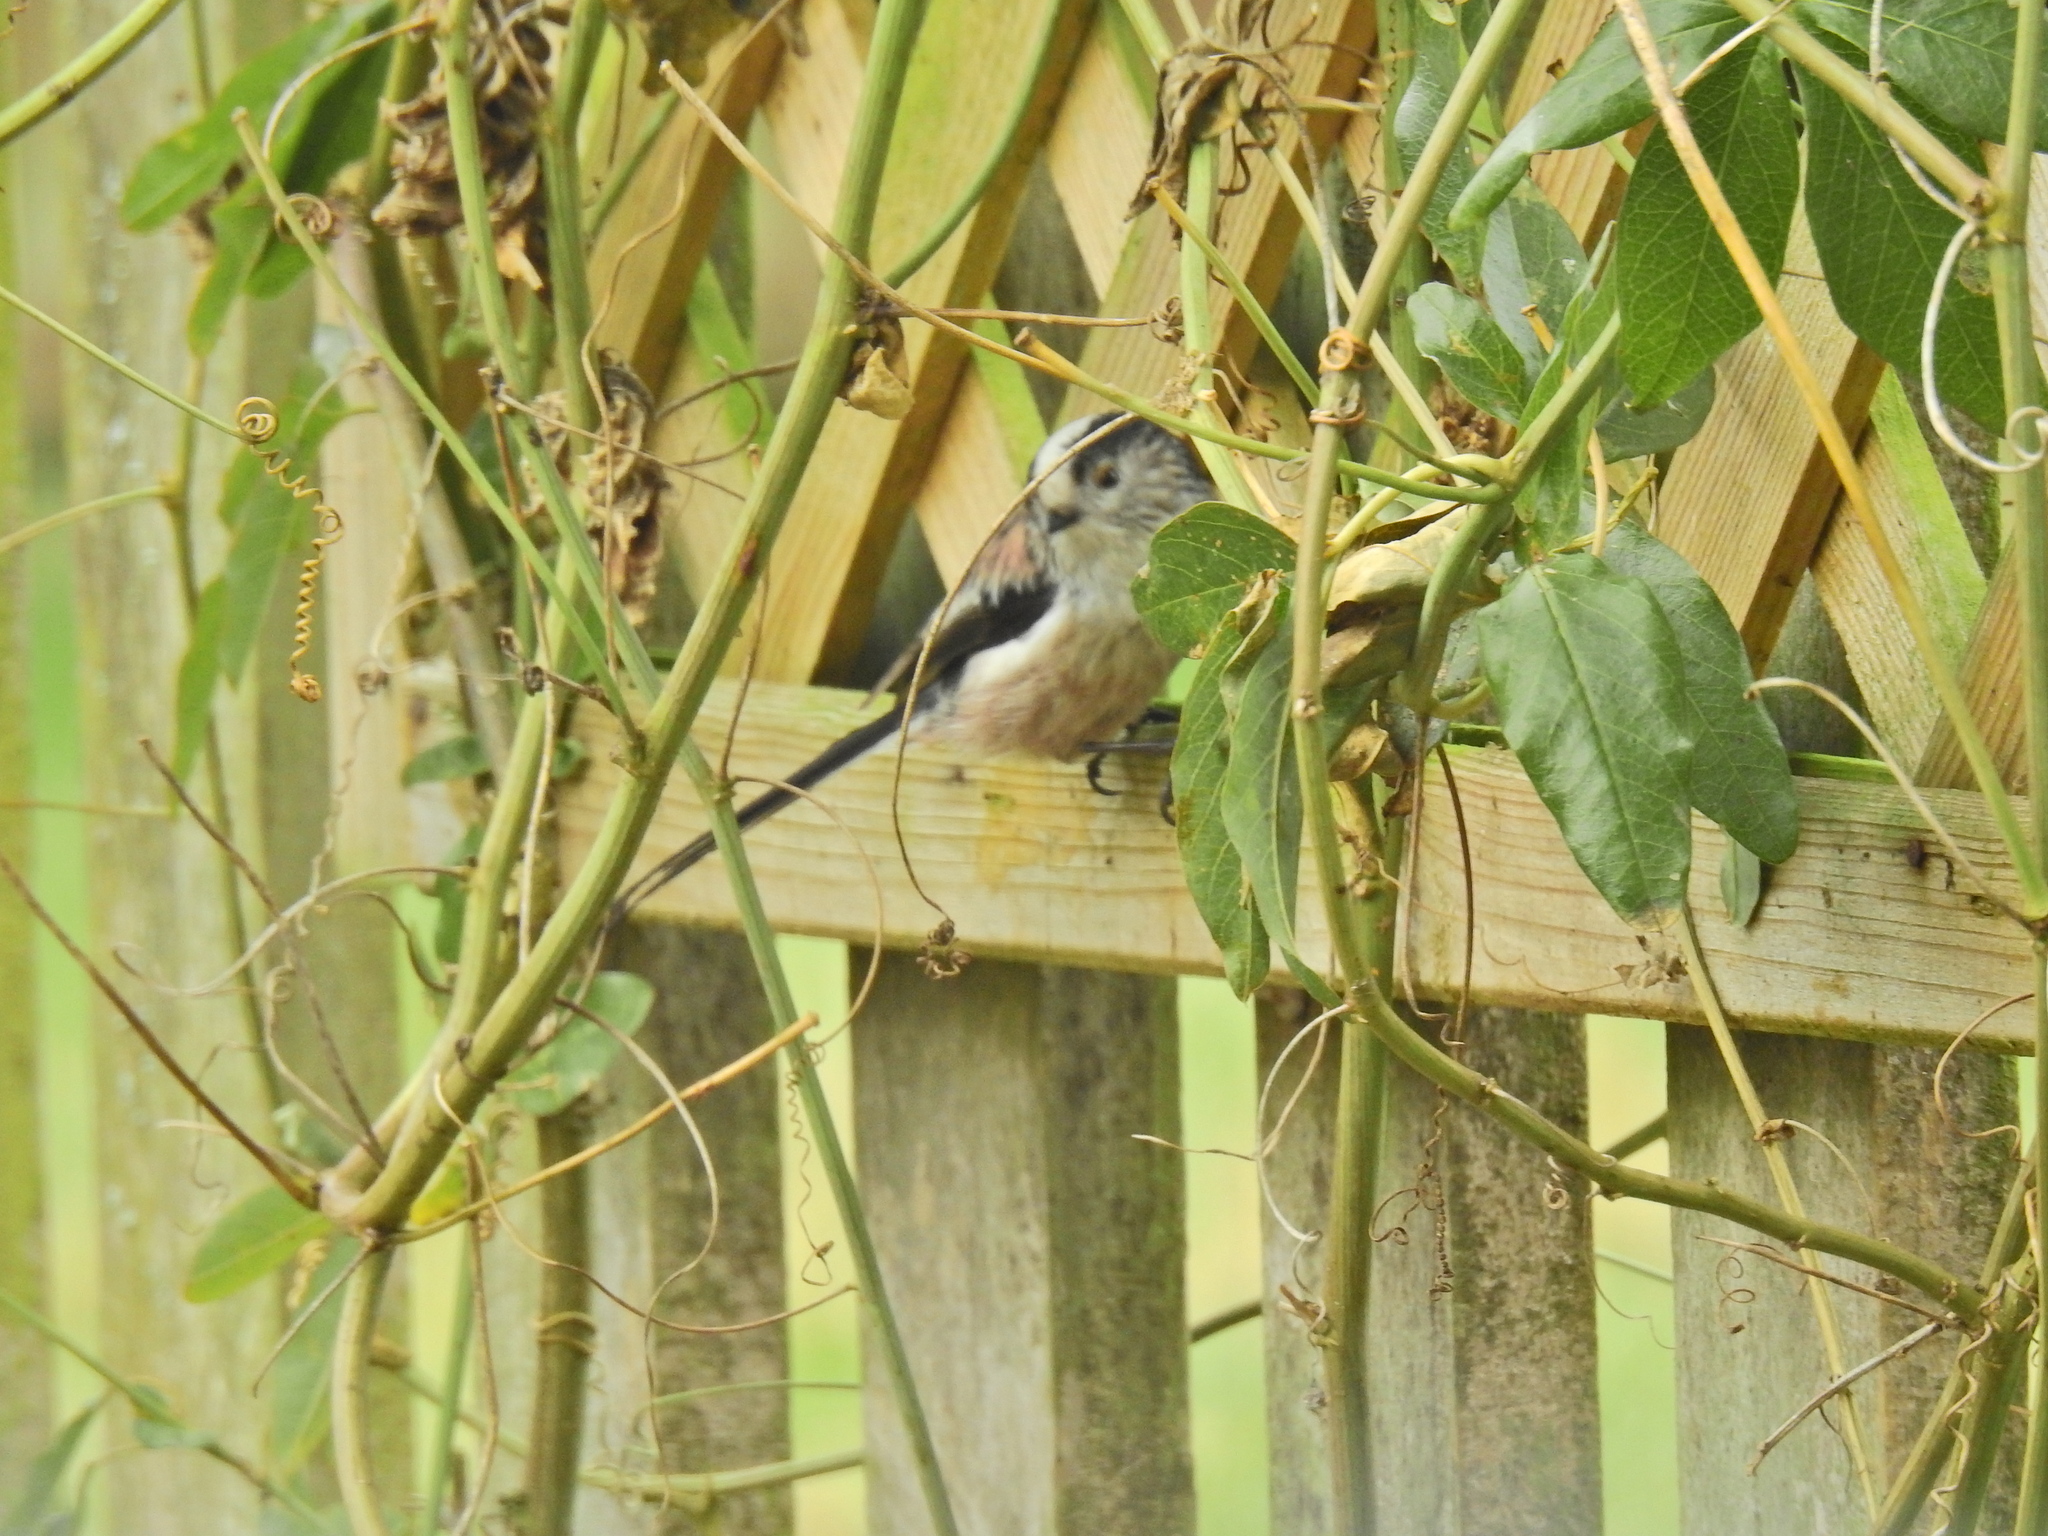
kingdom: Animalia
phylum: Chordata
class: Aves
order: Passeriformes
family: Aegithalidae
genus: Aegithalos
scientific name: Aegithalos caudatus
